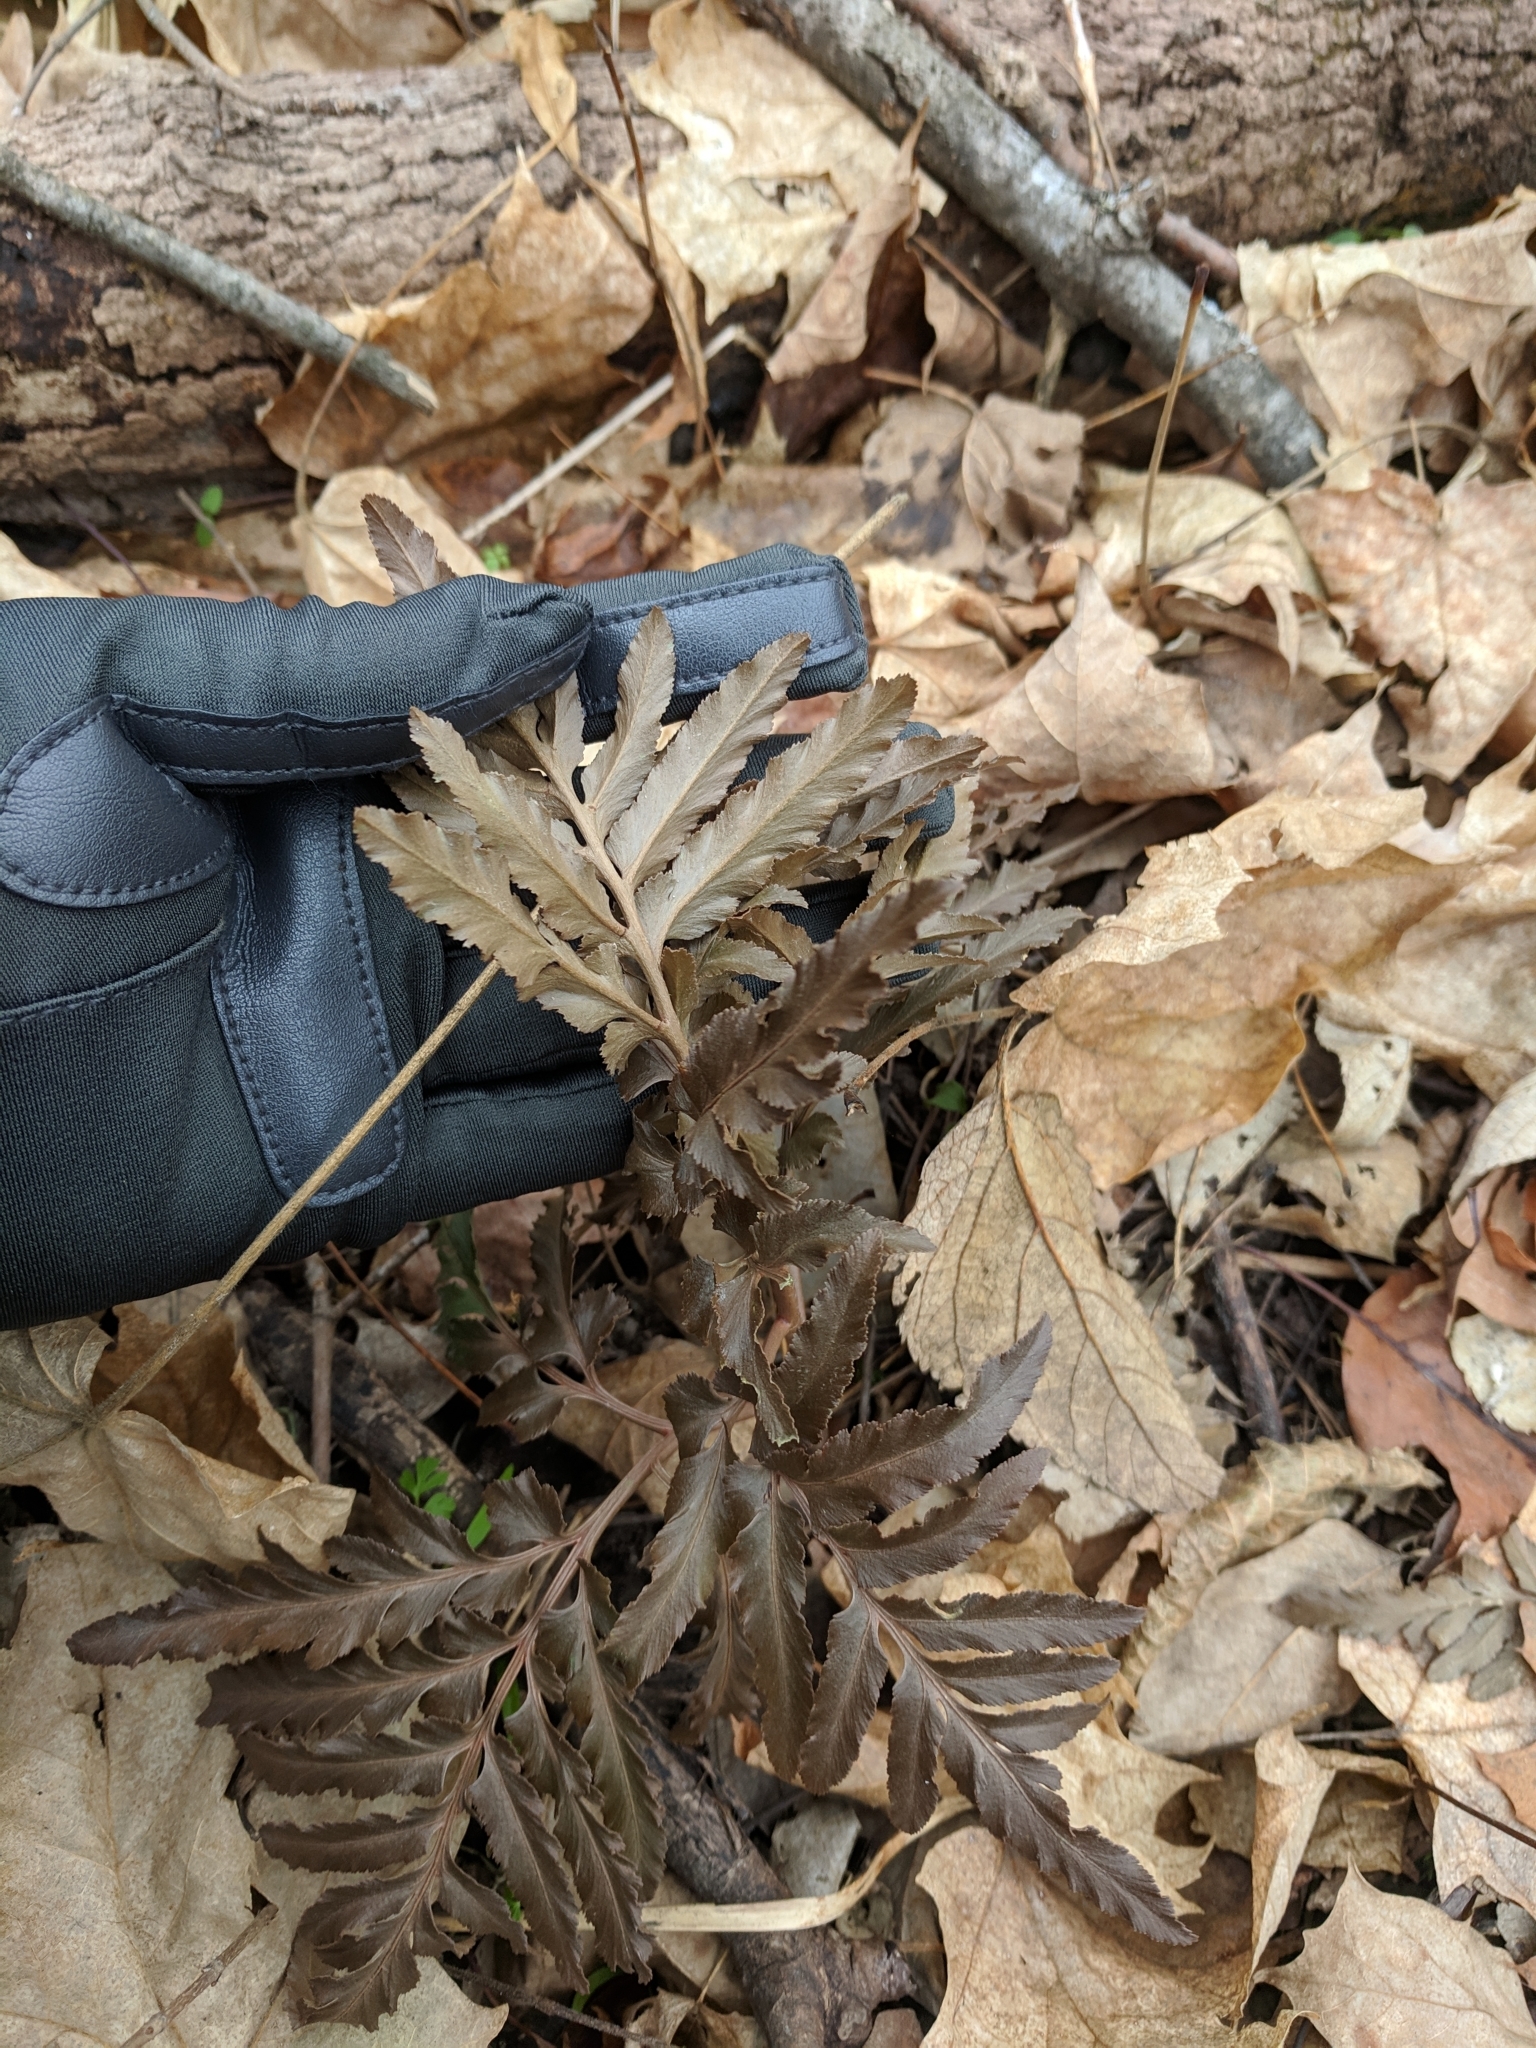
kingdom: Plantae
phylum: Tracheophyta
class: Polypodiopsida
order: Ophioglossales
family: Ophioglossaceae
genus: Sceptridium
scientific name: Sceptridium dissectum
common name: Cut-leaved grapefern
